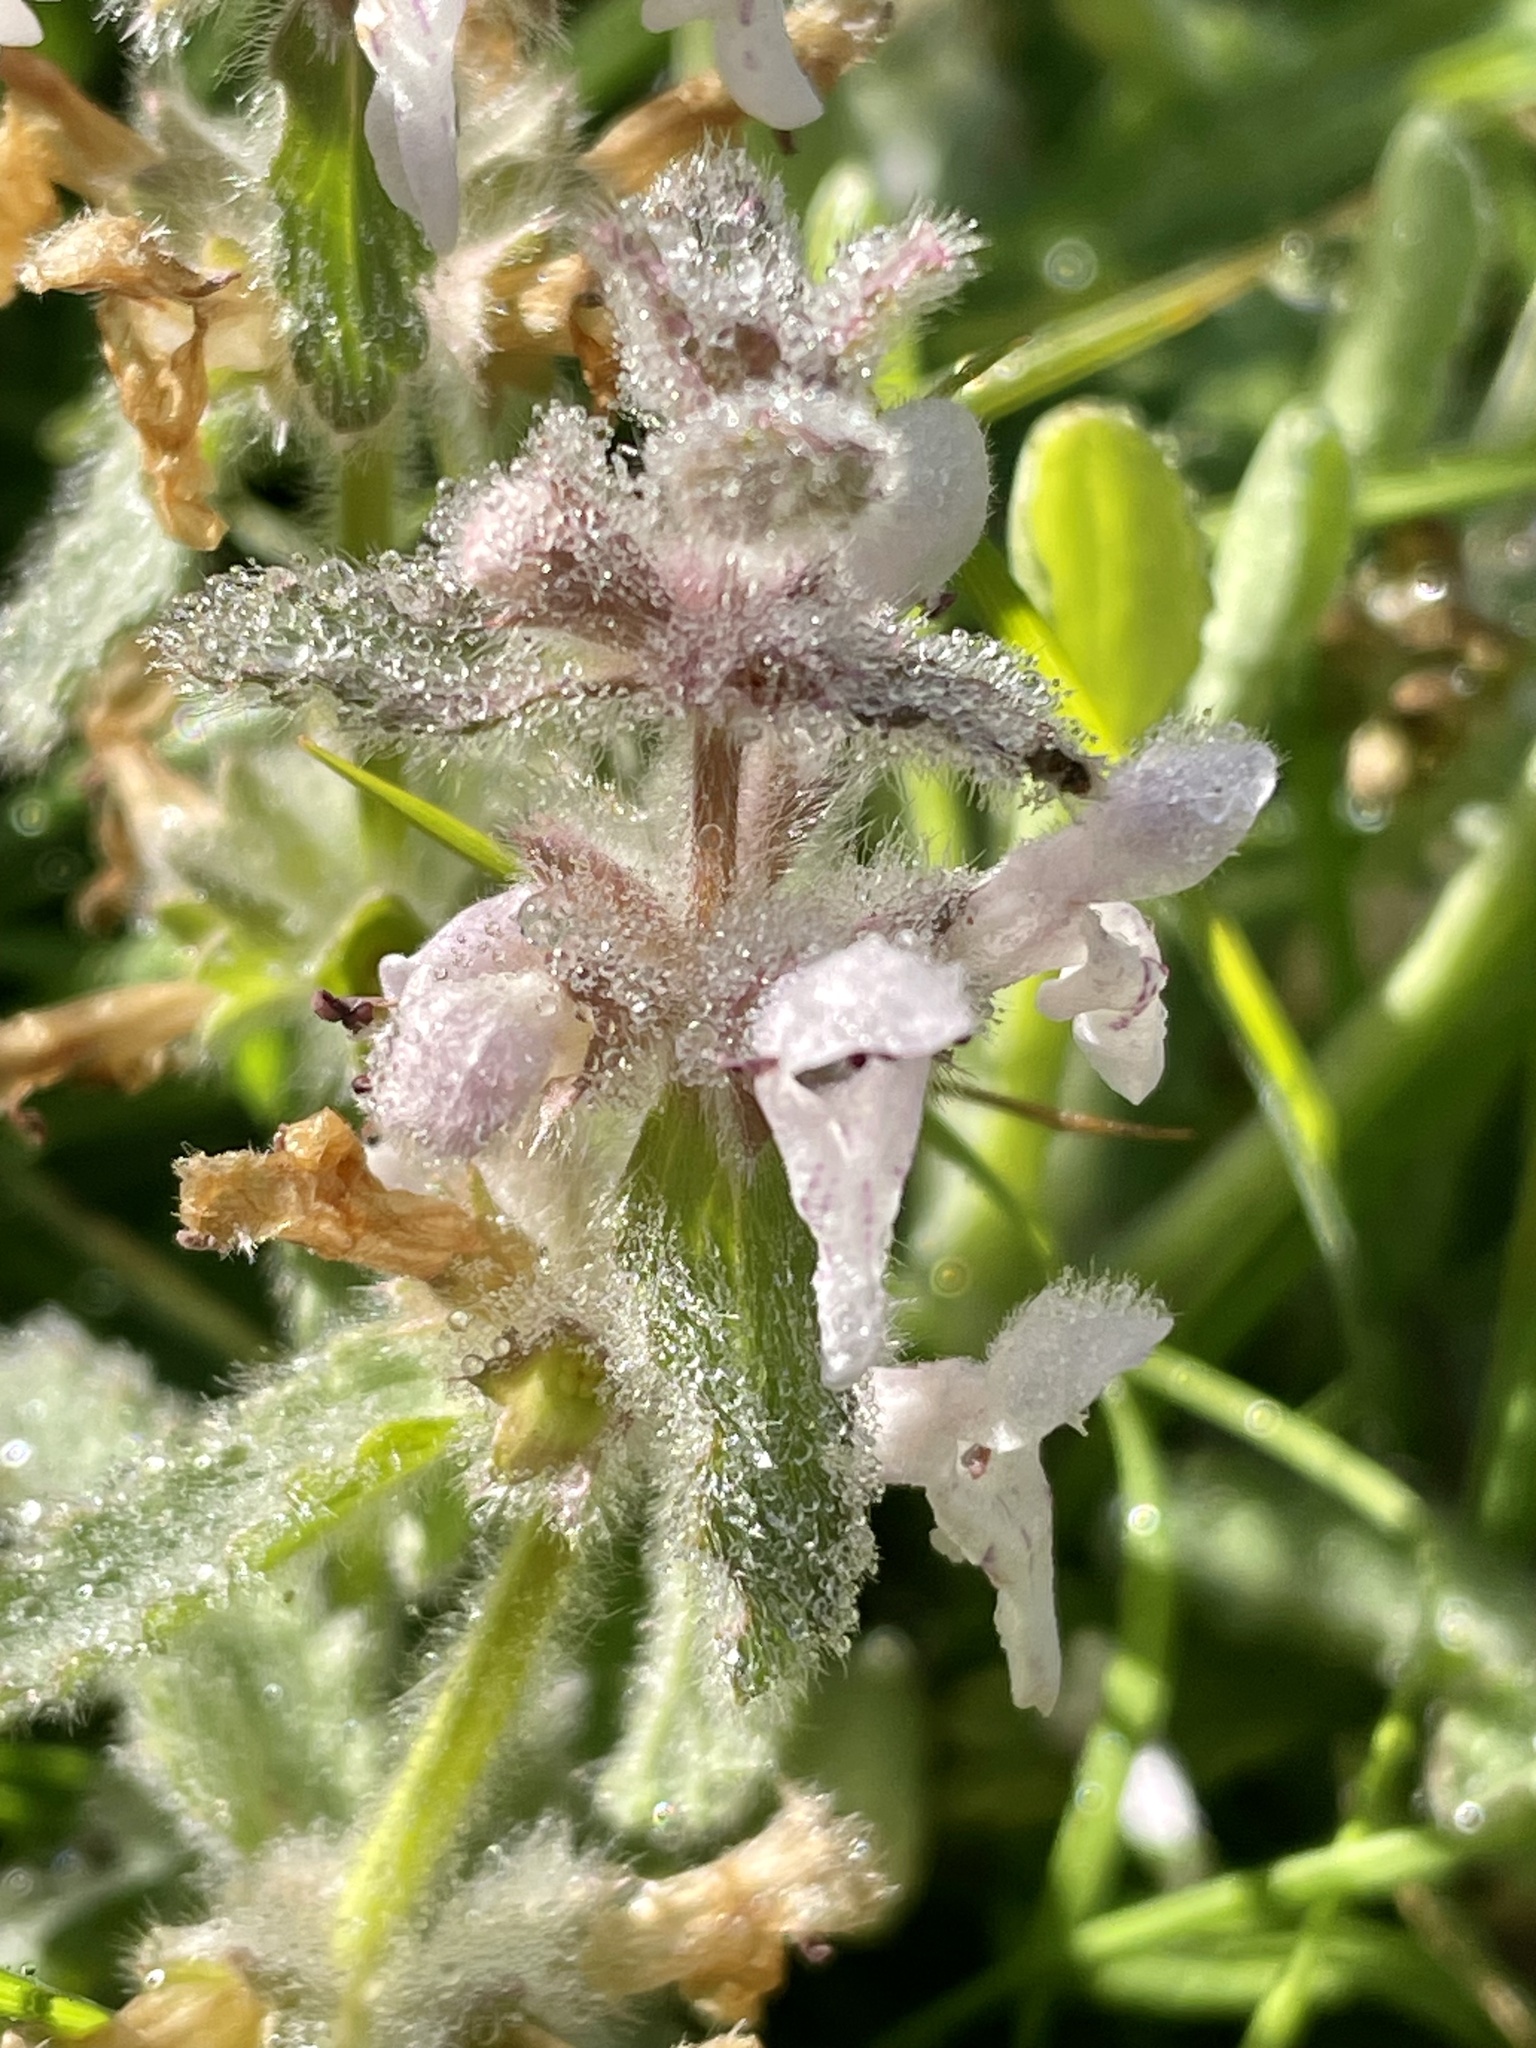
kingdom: Plantae
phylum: Tracheophyta
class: Magnoliopsida
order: Lamiales
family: Lamiaceae
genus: Stachys
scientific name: Stachys ajugoides
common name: Hedge-nettle
